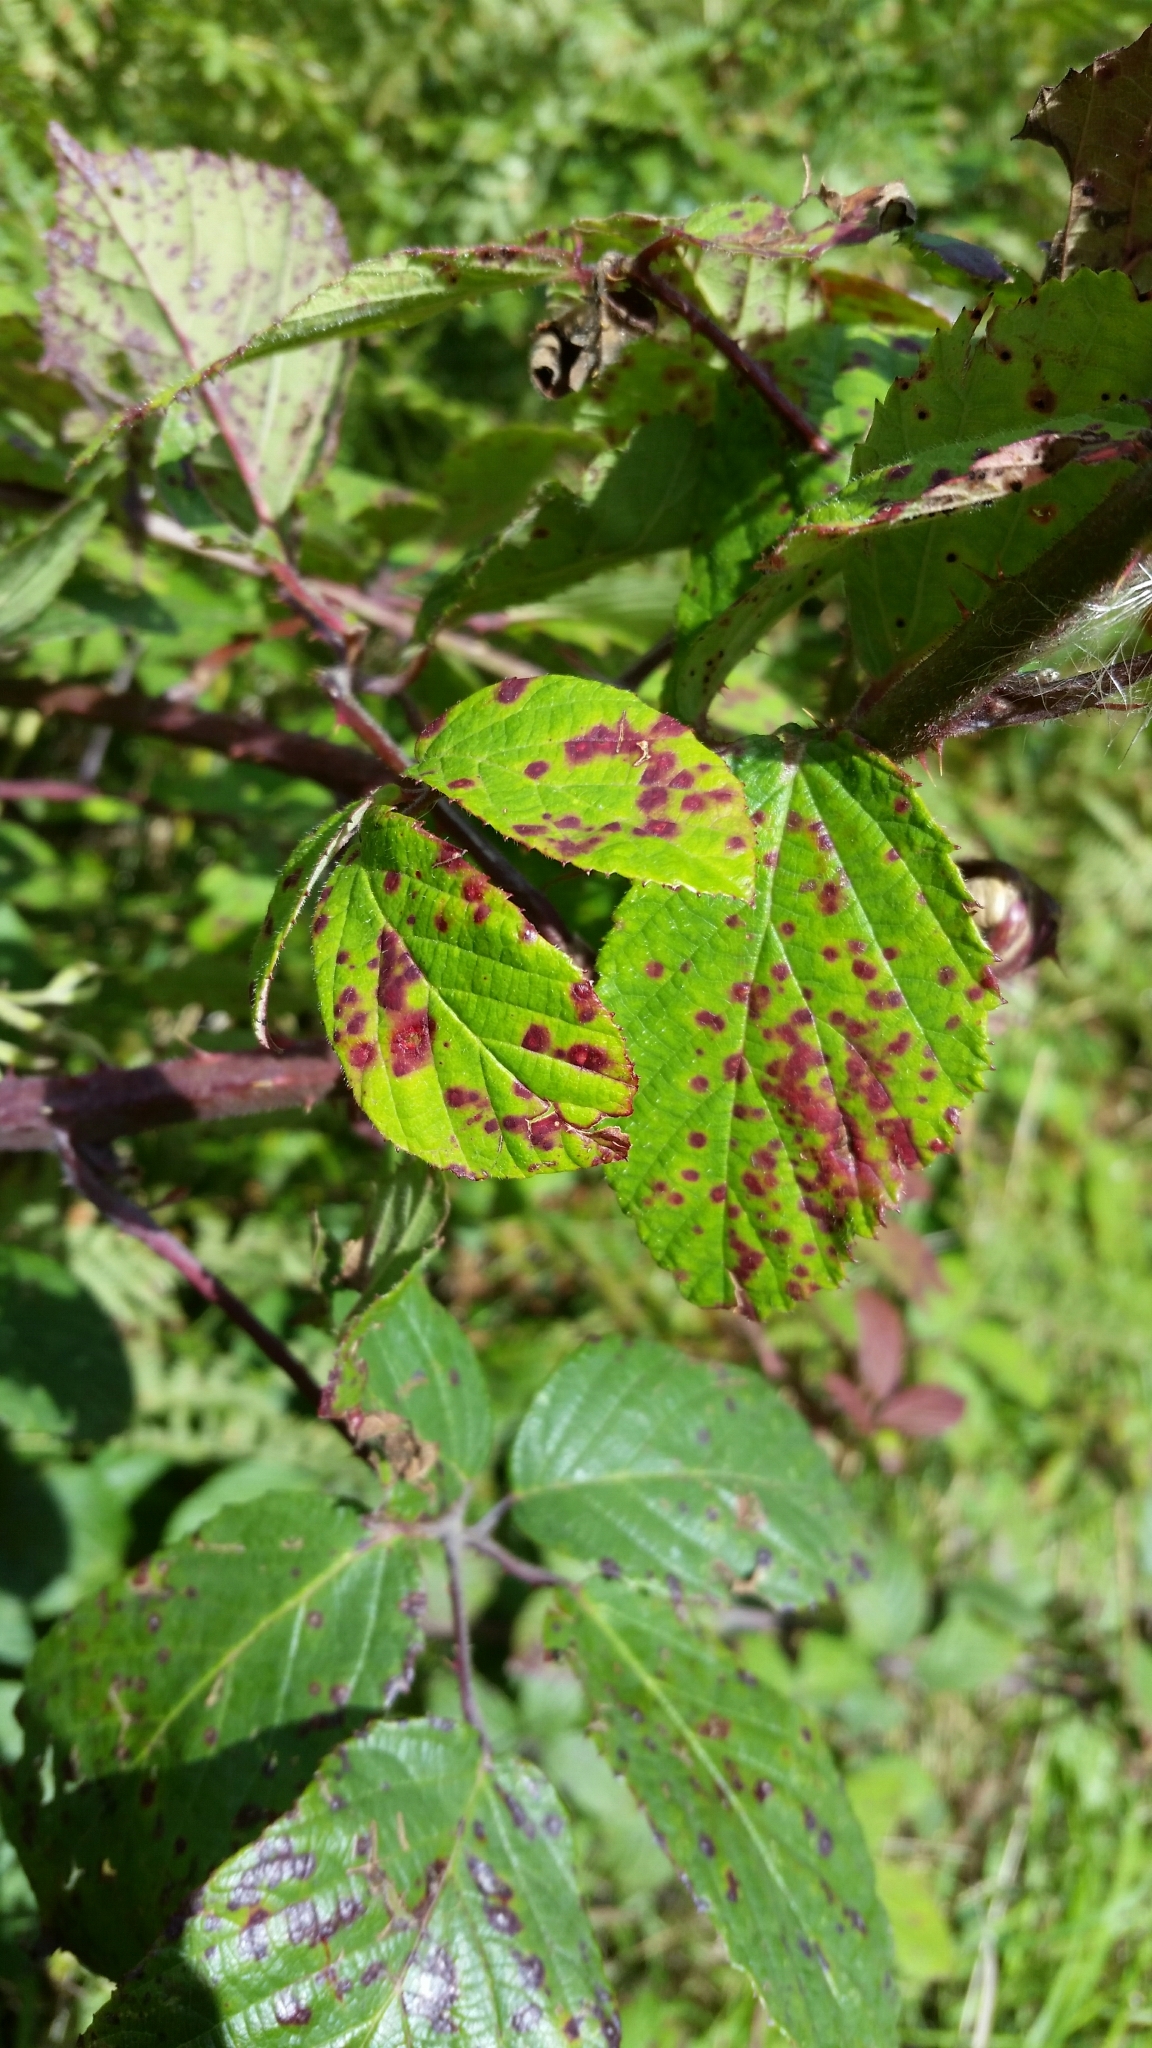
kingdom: Fungi
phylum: Basidiomycota
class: Pucciniomycetes
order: Pucciniales
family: Phragmidiaceae
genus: Phragmidium
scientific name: Phragmidium violaceum
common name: Violet bramble rust
